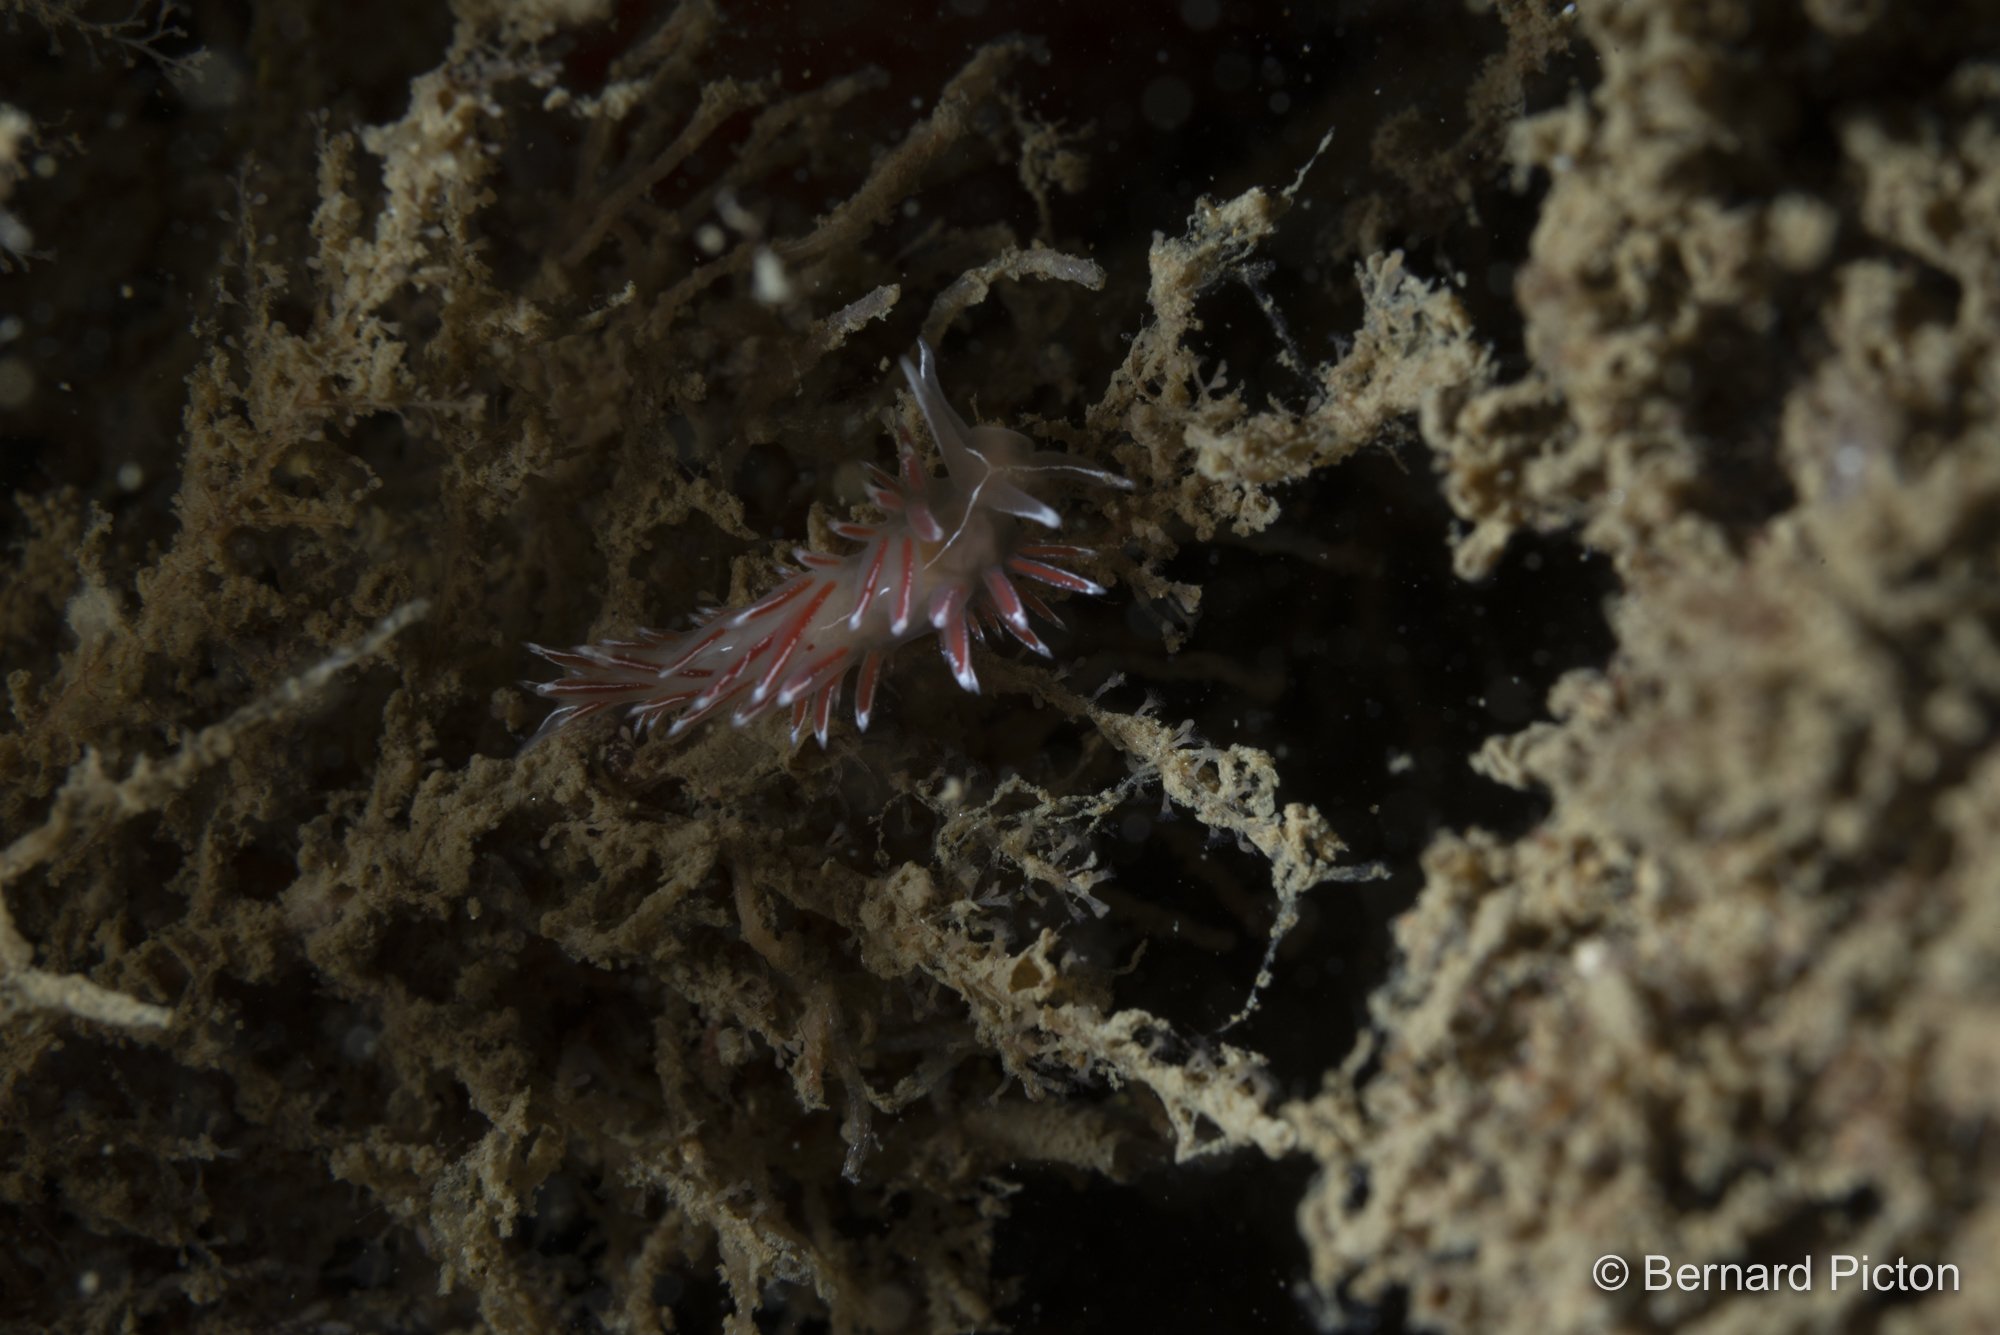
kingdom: Animalia
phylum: Mollusca
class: Gastropoda
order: Nudibranchia
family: Coryphellidae
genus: Coryphella
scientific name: Coryphella lineata
